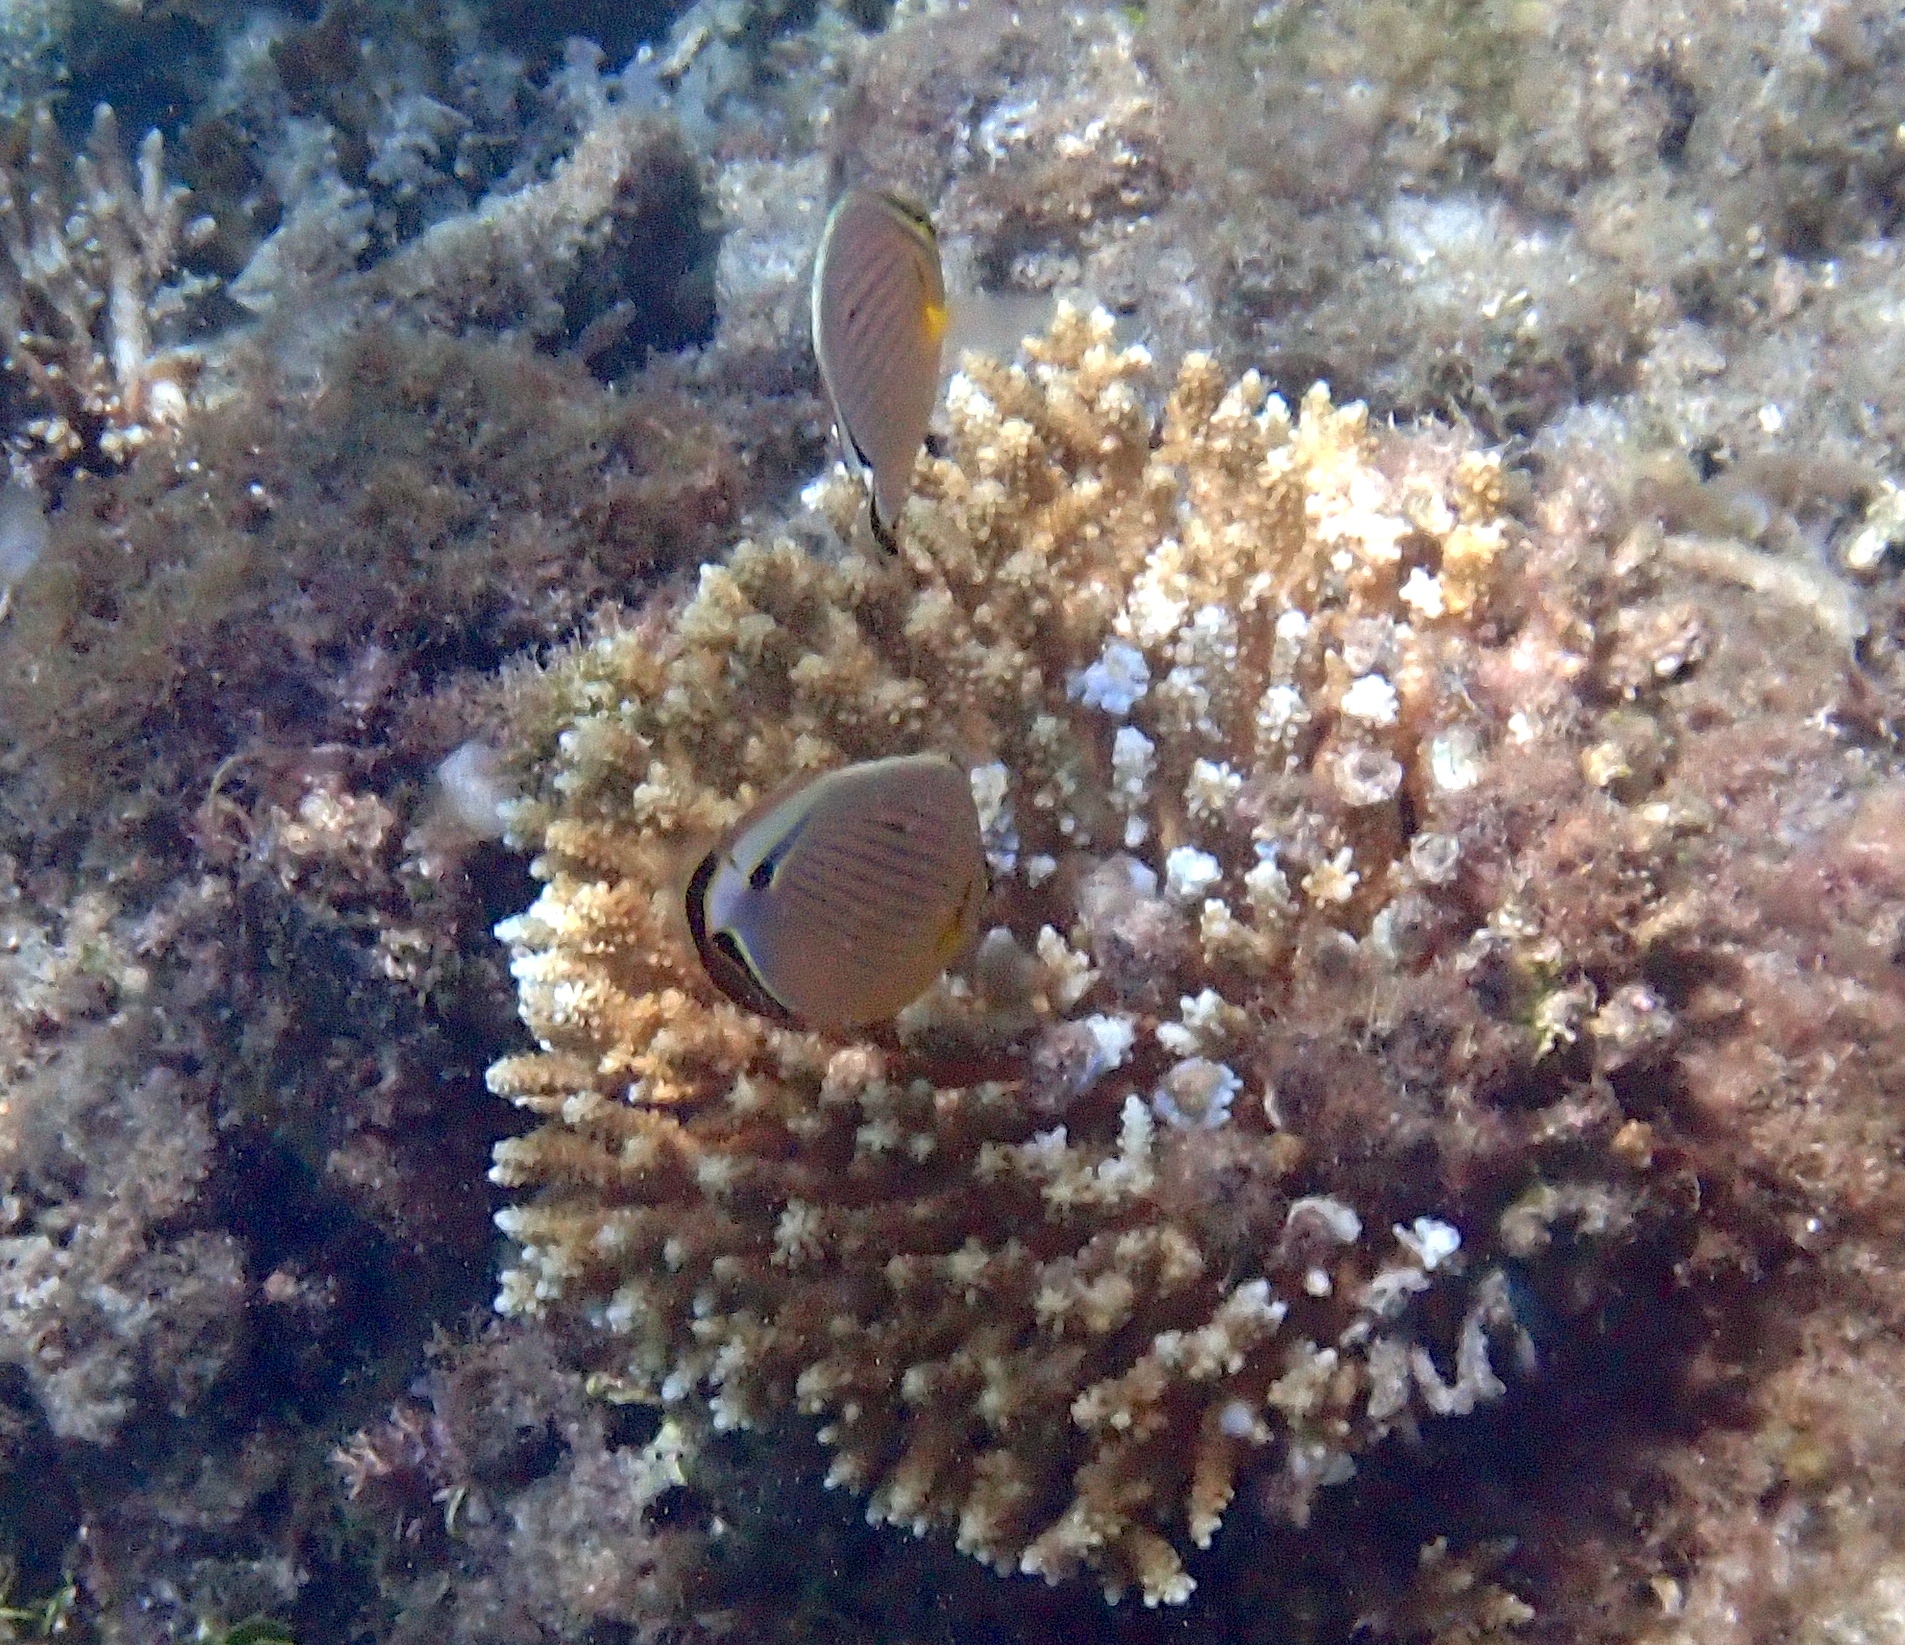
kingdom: Animalia
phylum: Chordata
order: Perciformes
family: Chaetodontidae
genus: Chaetodon
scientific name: Chaetodon lunulatus
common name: Redfin butterflyfish
